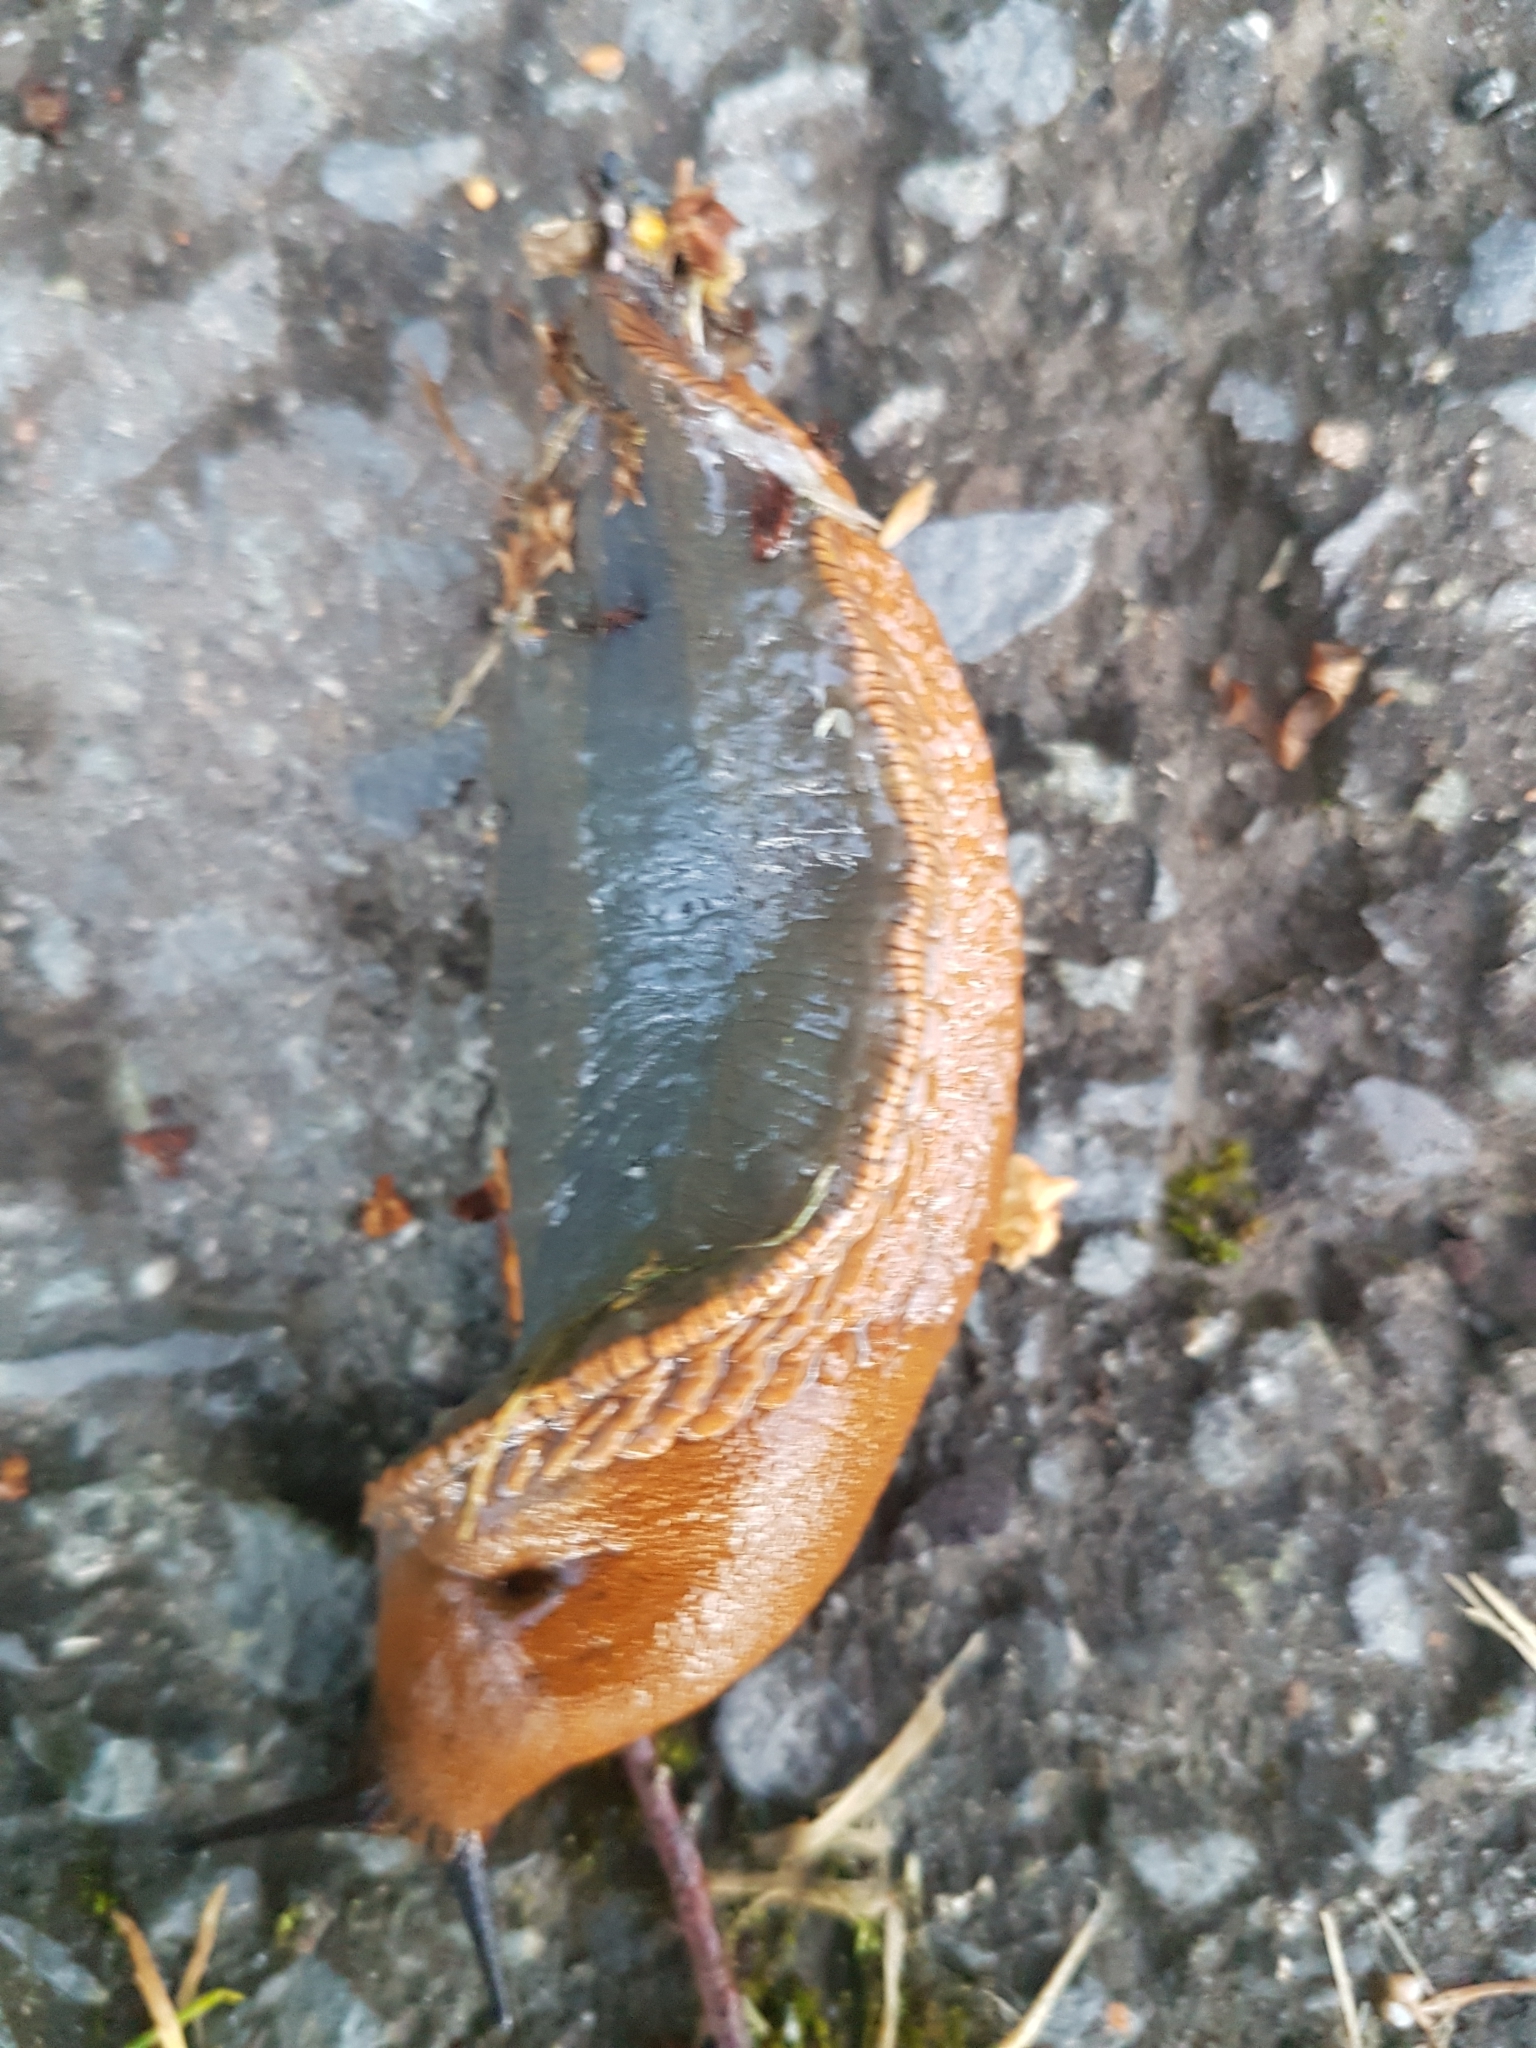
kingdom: Animalia
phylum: Mollusca
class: Gastropoda
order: Stylommatophora
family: Arionidae
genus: Arion
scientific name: Arion vulgaris
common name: Lusitanian slug
